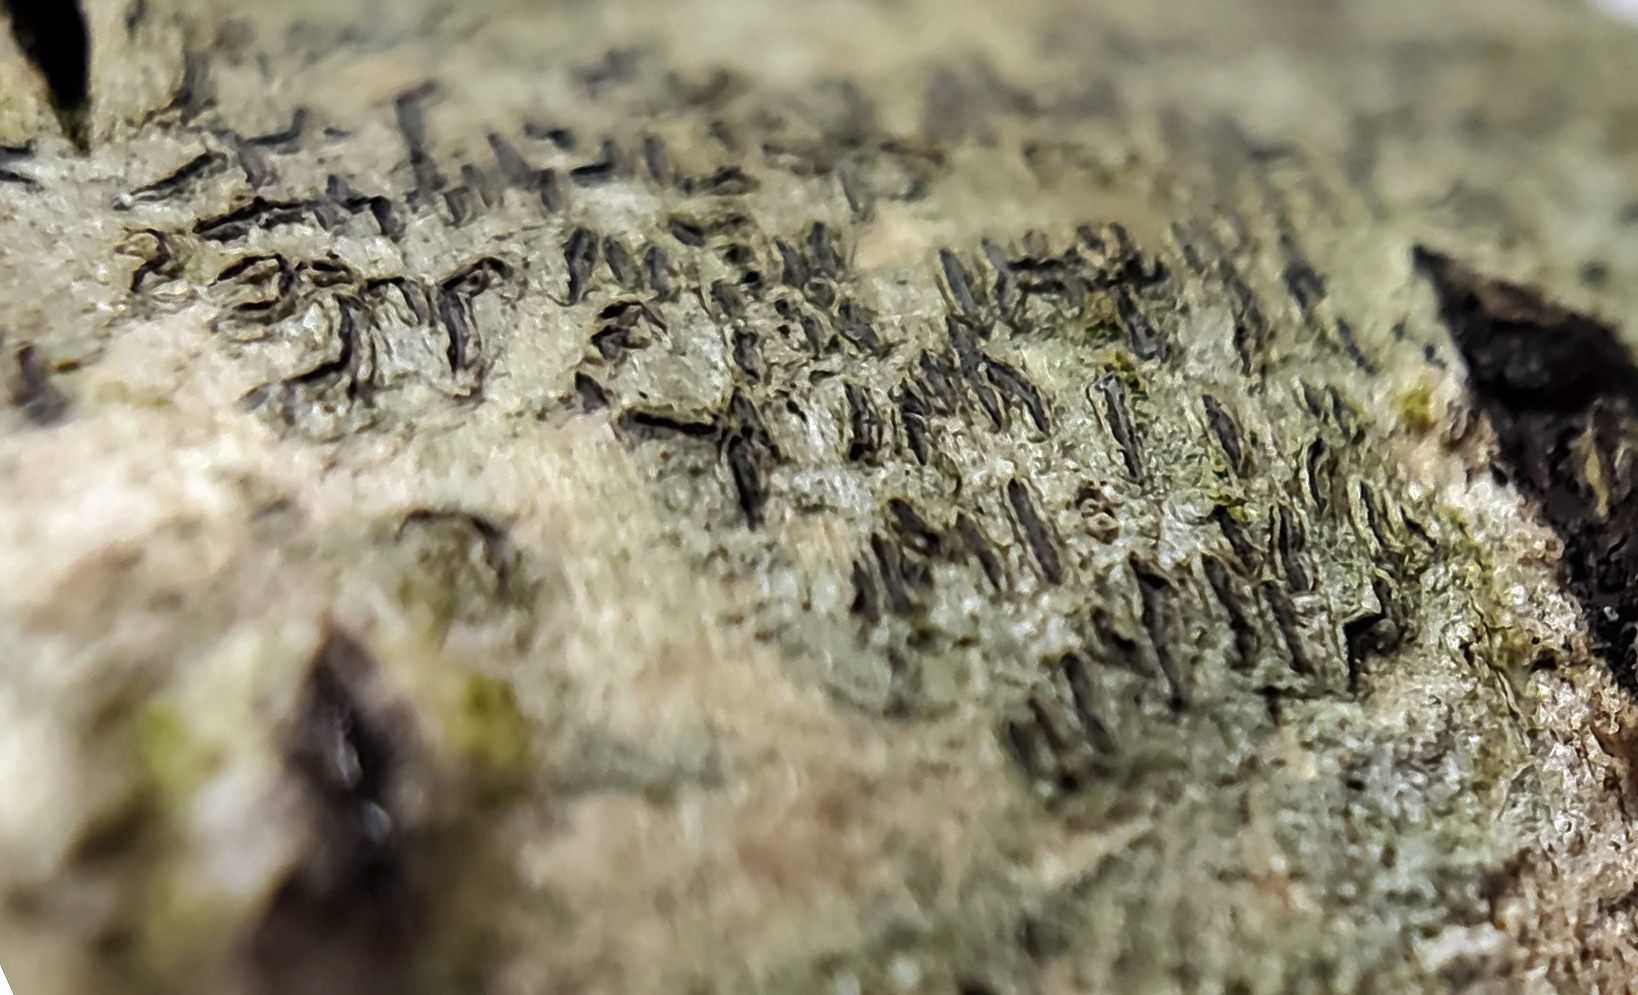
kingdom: Fungi
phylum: Ascomycota
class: Lecanoromycetes
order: Ostropales
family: Graphidaceae
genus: Phaeographis
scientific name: Phaeographis inusta
